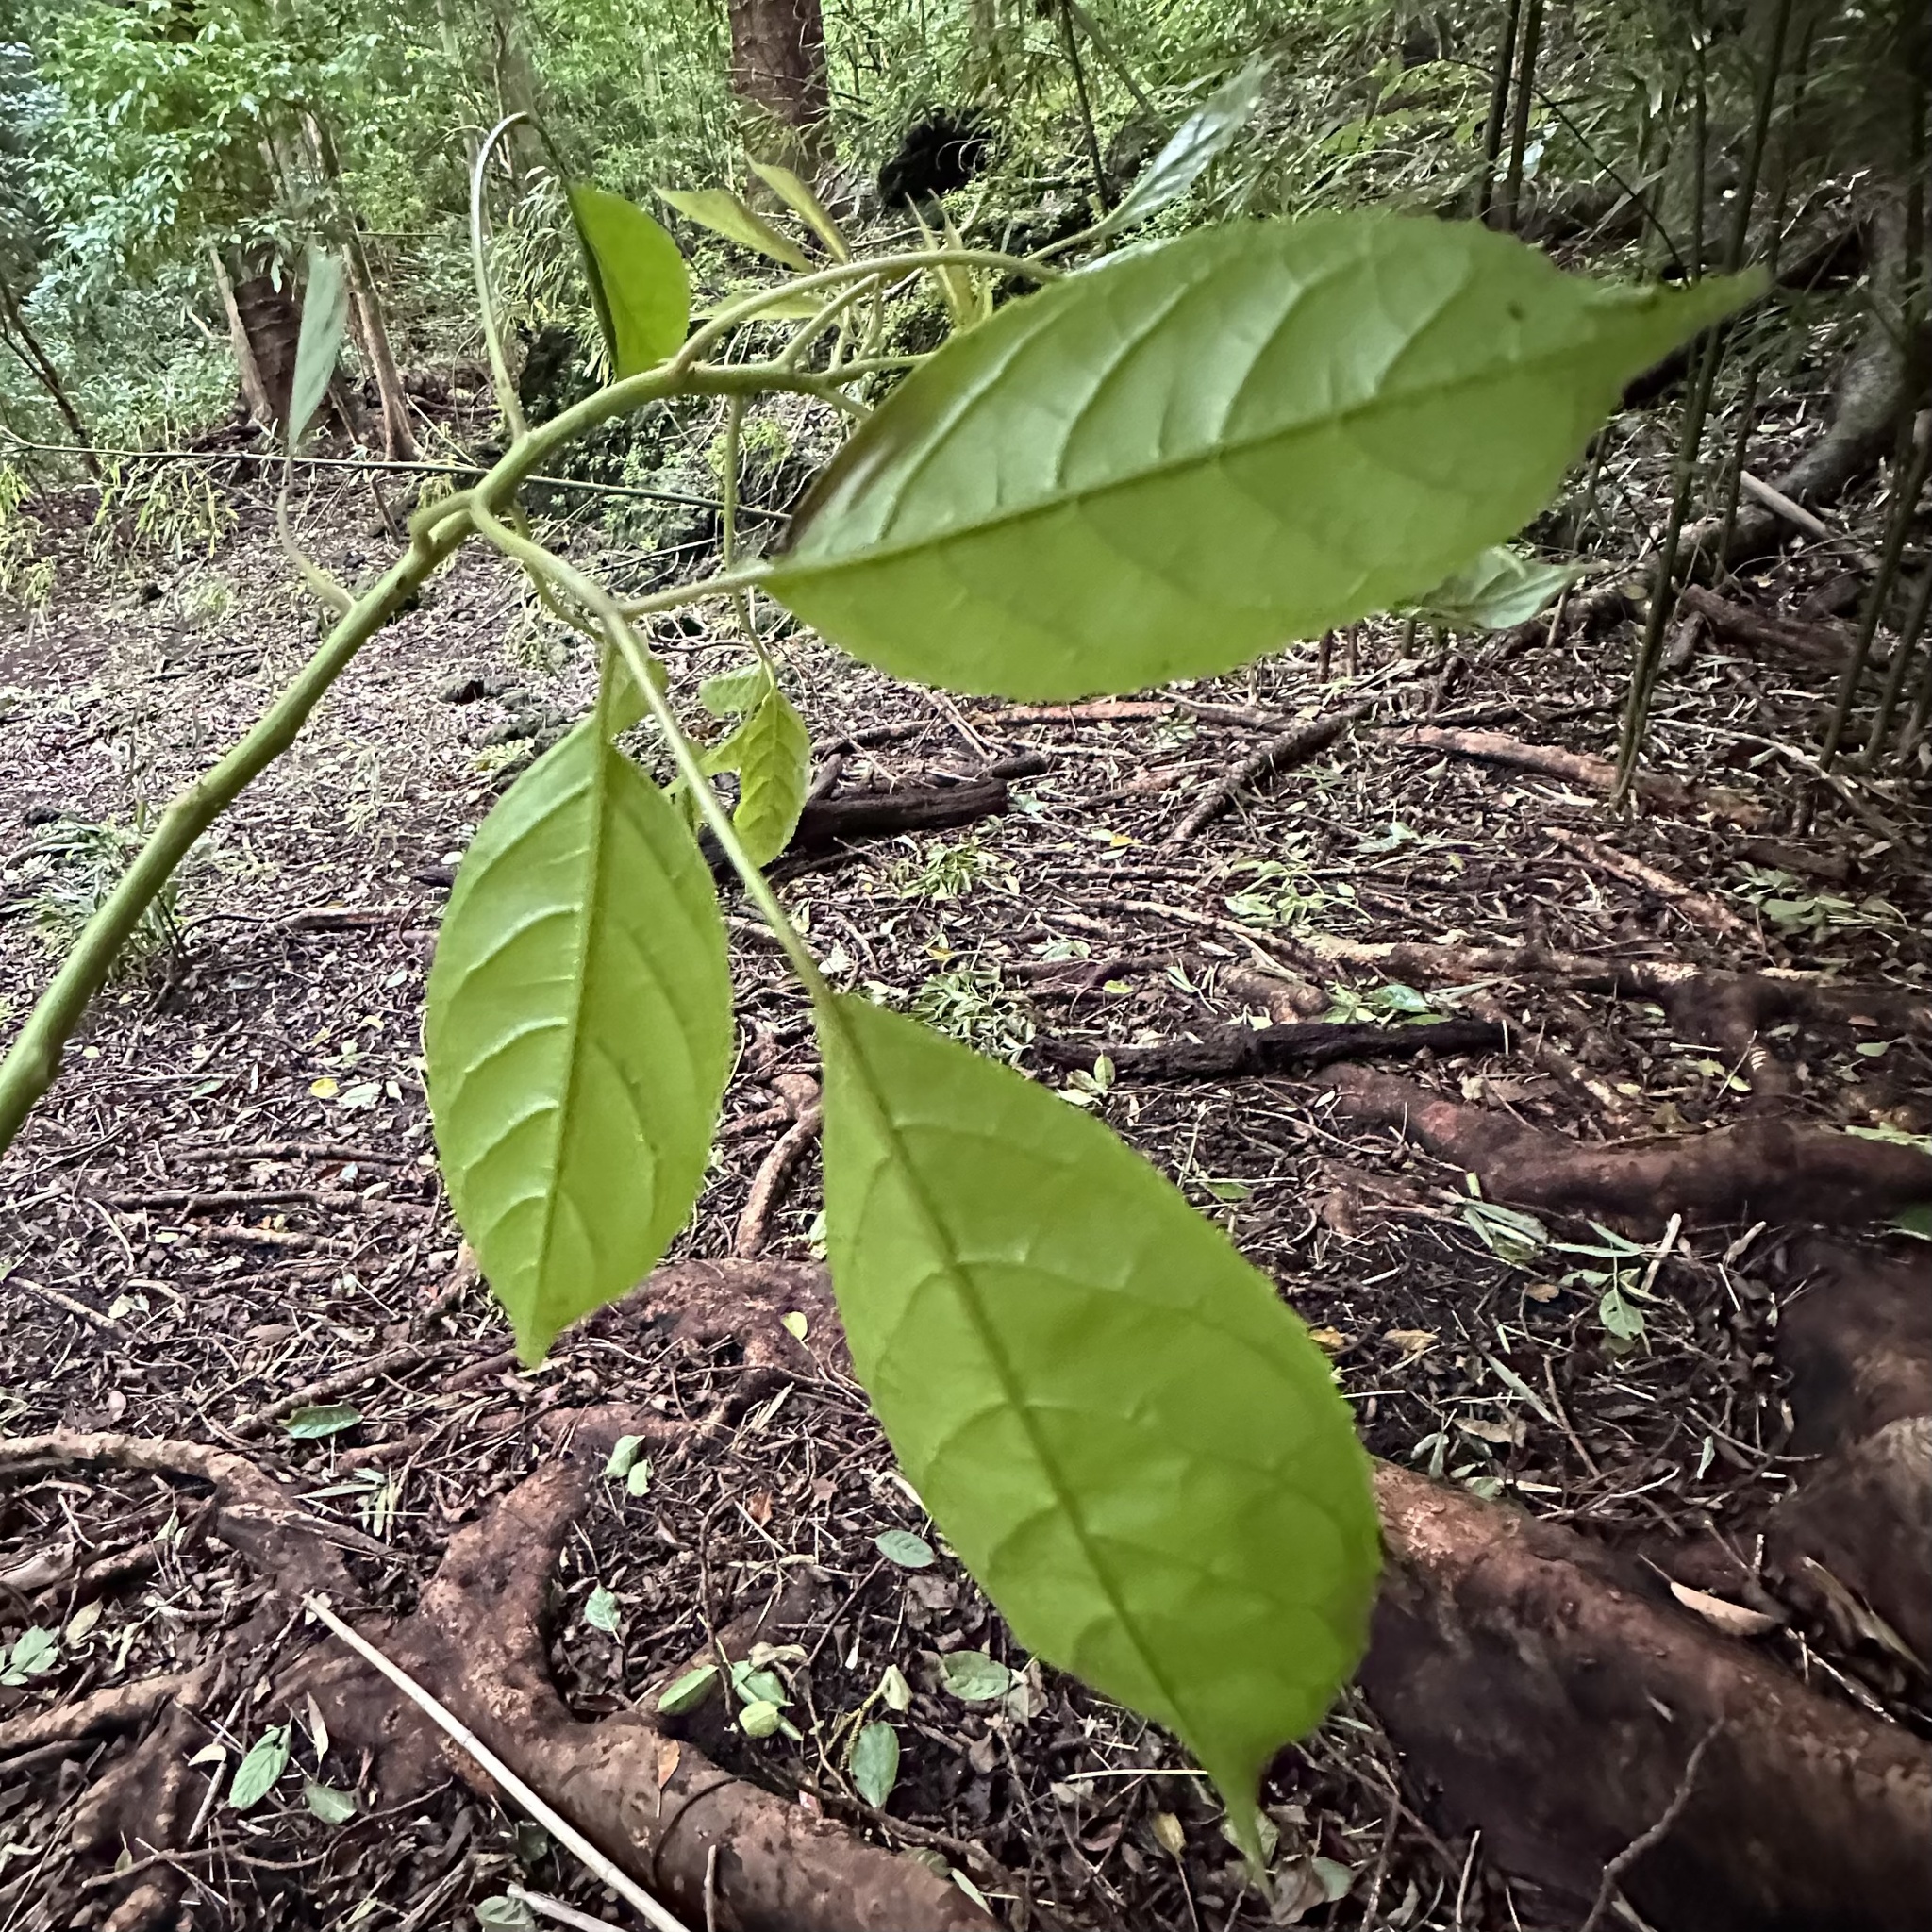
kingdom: Plantae
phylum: Tracheophyta
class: Magnoliopsida
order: Malpighiales
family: Phyllanthaceae
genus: Bischofia
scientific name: Bischofia javanica
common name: Javanese bishopwood
